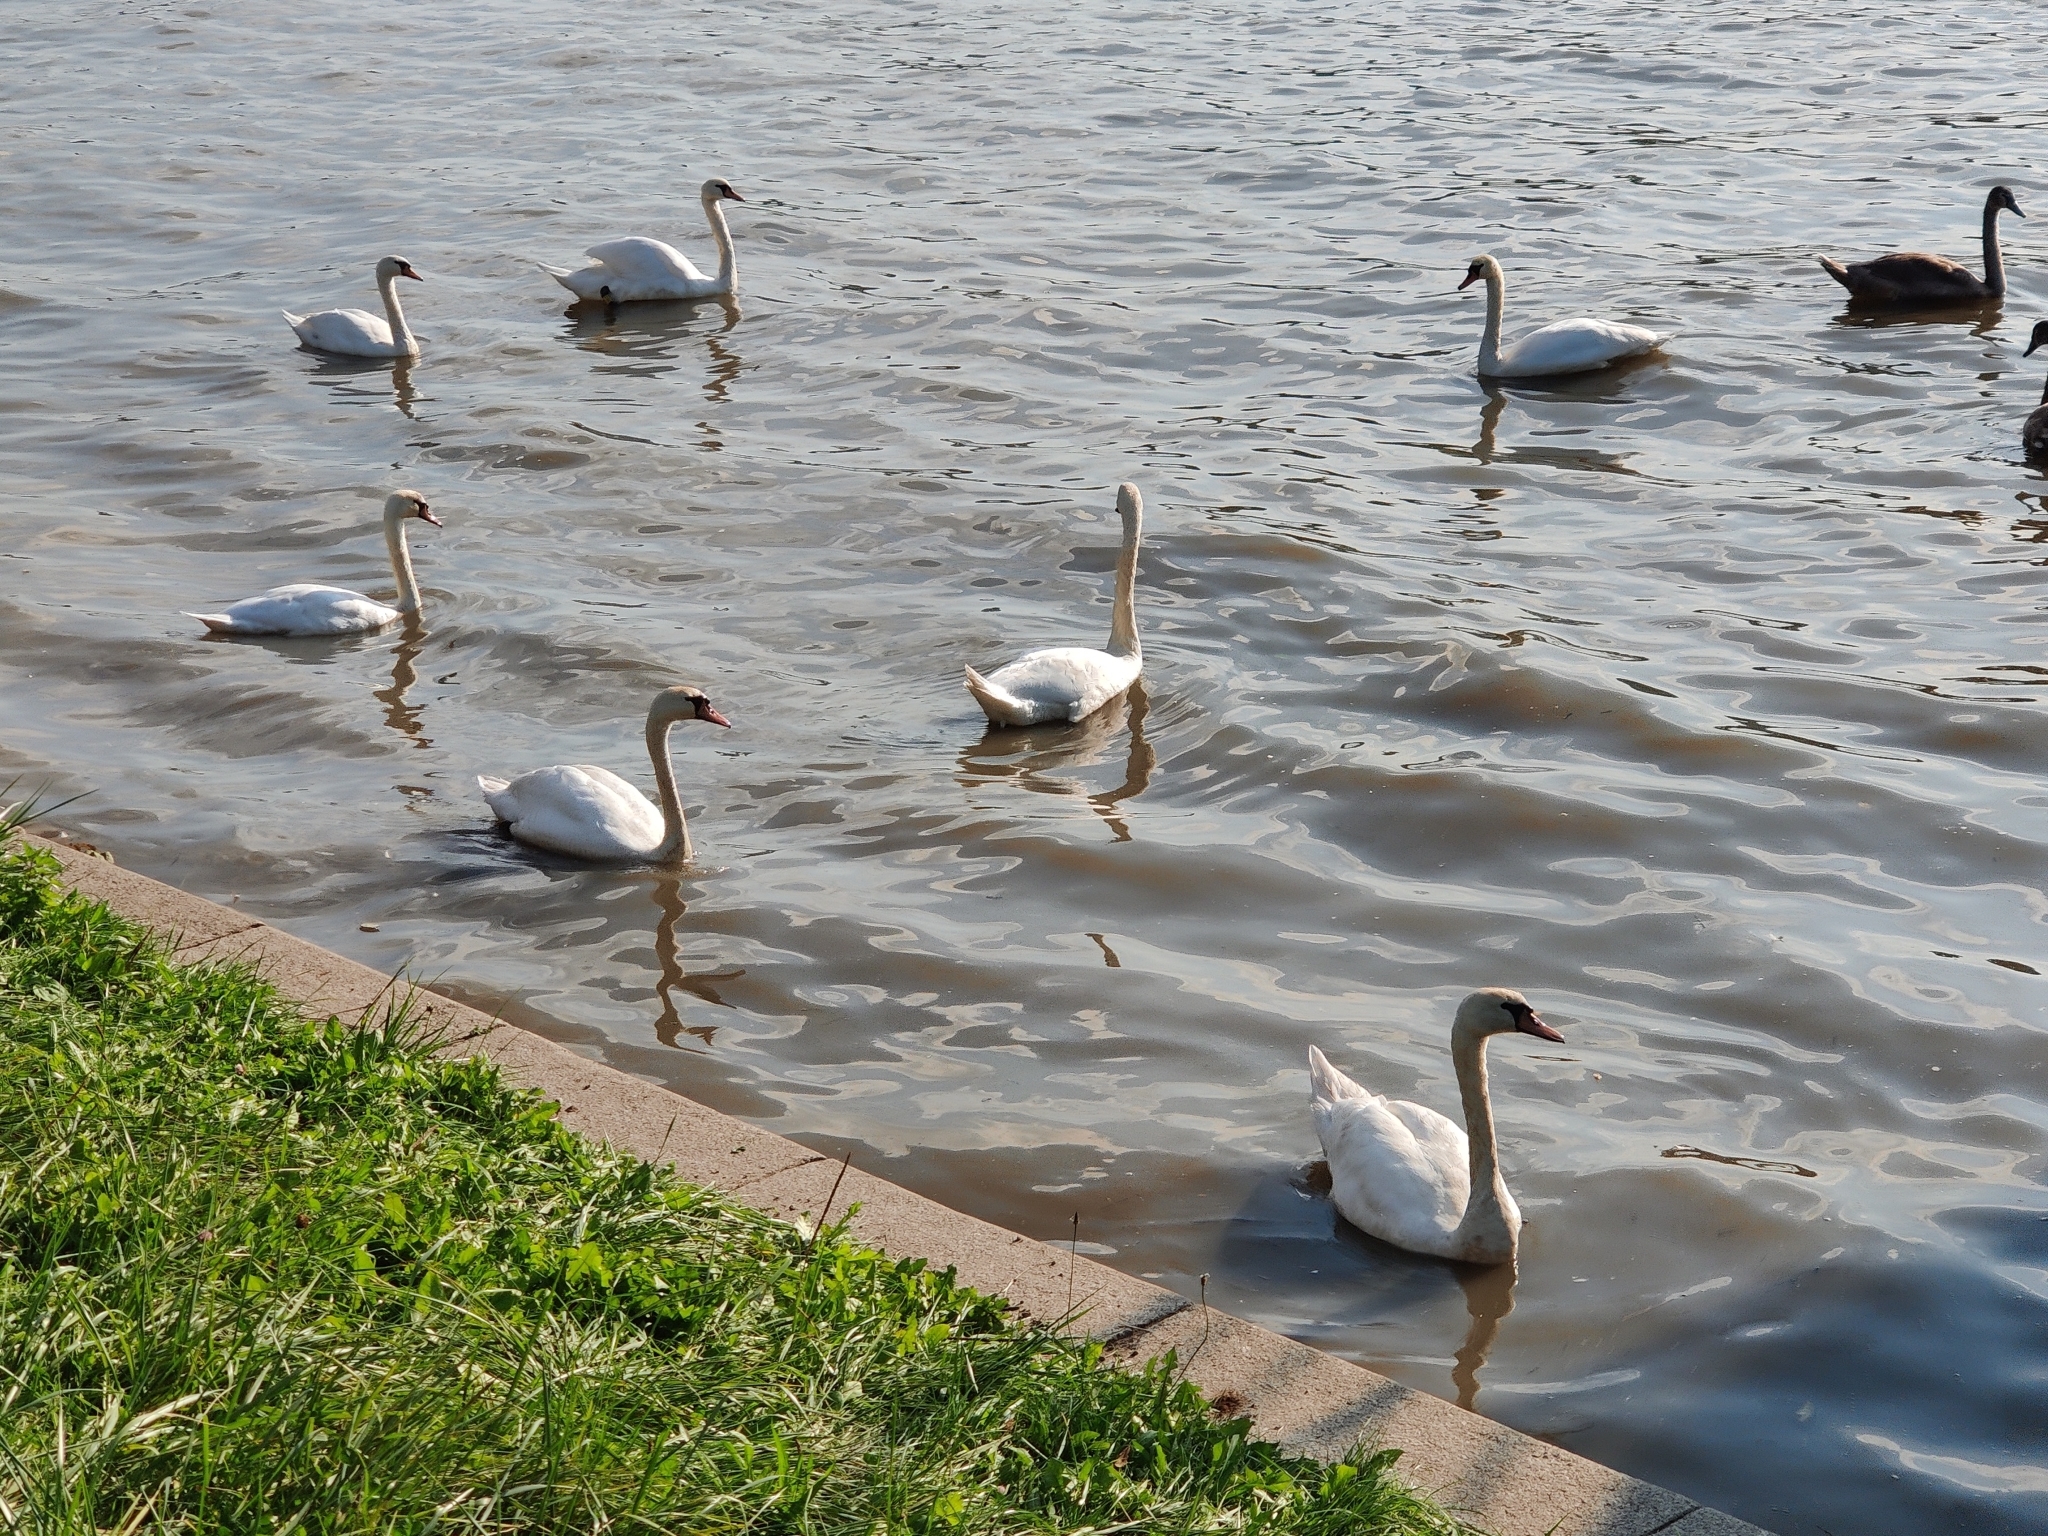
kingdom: Animalia
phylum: Chordata
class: Aves
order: Anseriformes
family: Anatidae
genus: Cygnus
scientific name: Cygnus olor
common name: Mute swan
